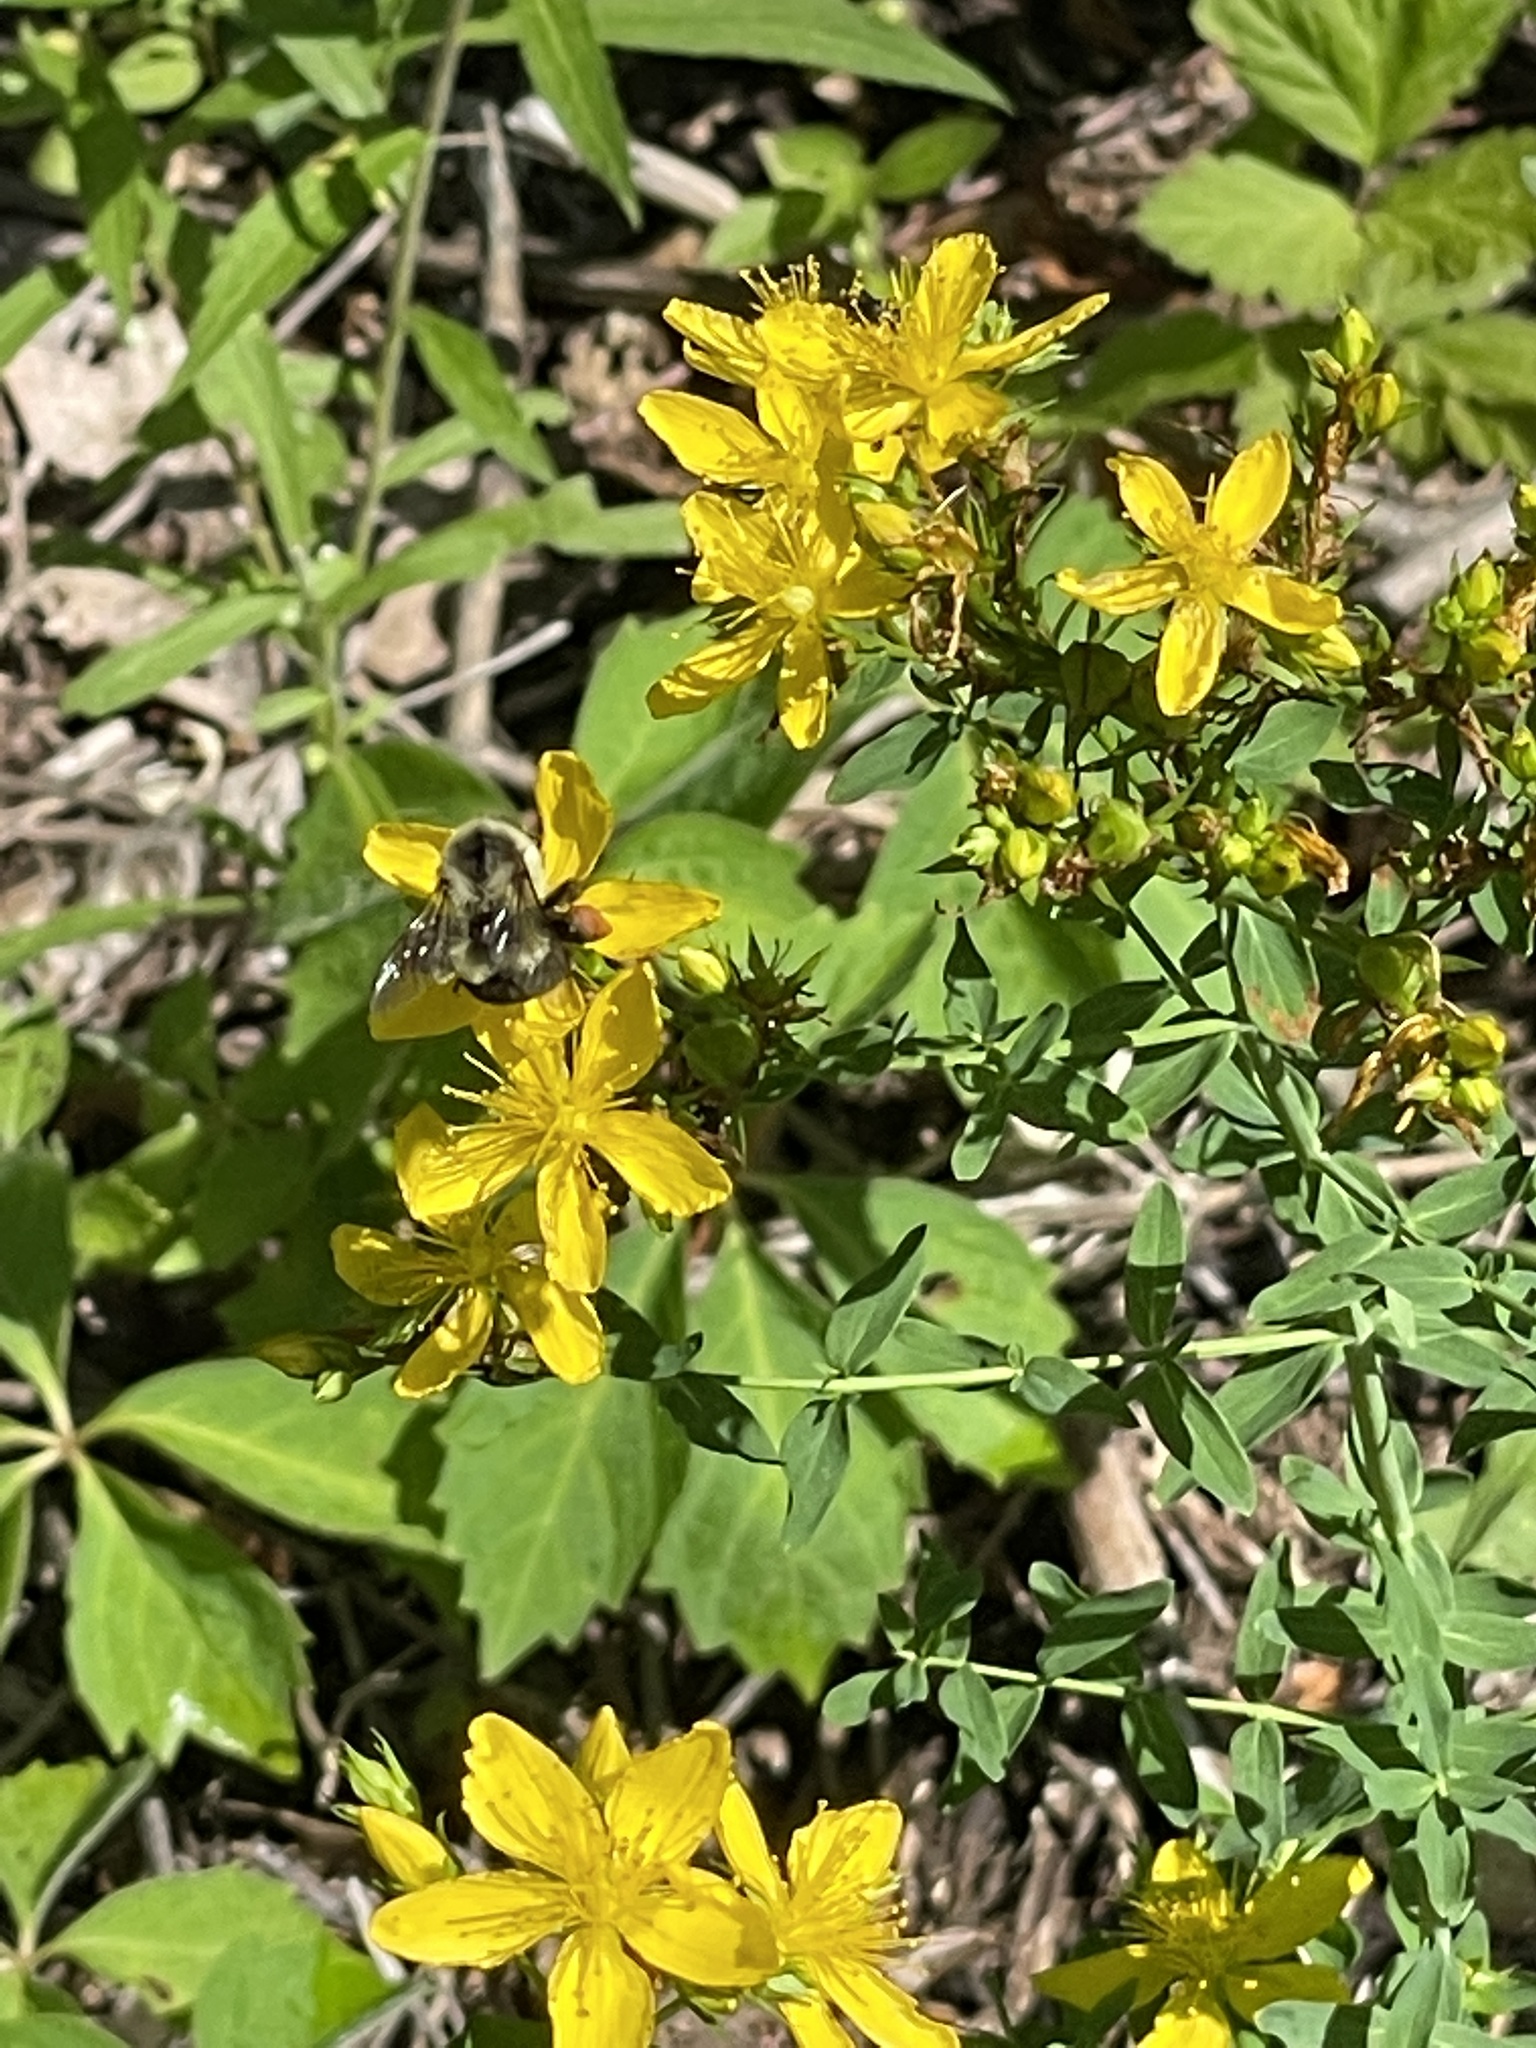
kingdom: Plantae
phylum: Tracheophyta
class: Magnoliopsida
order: Malpighiales
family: Hypericaceae
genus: Hypericum
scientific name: Hypericum perforatum
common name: Common st. johnswort
